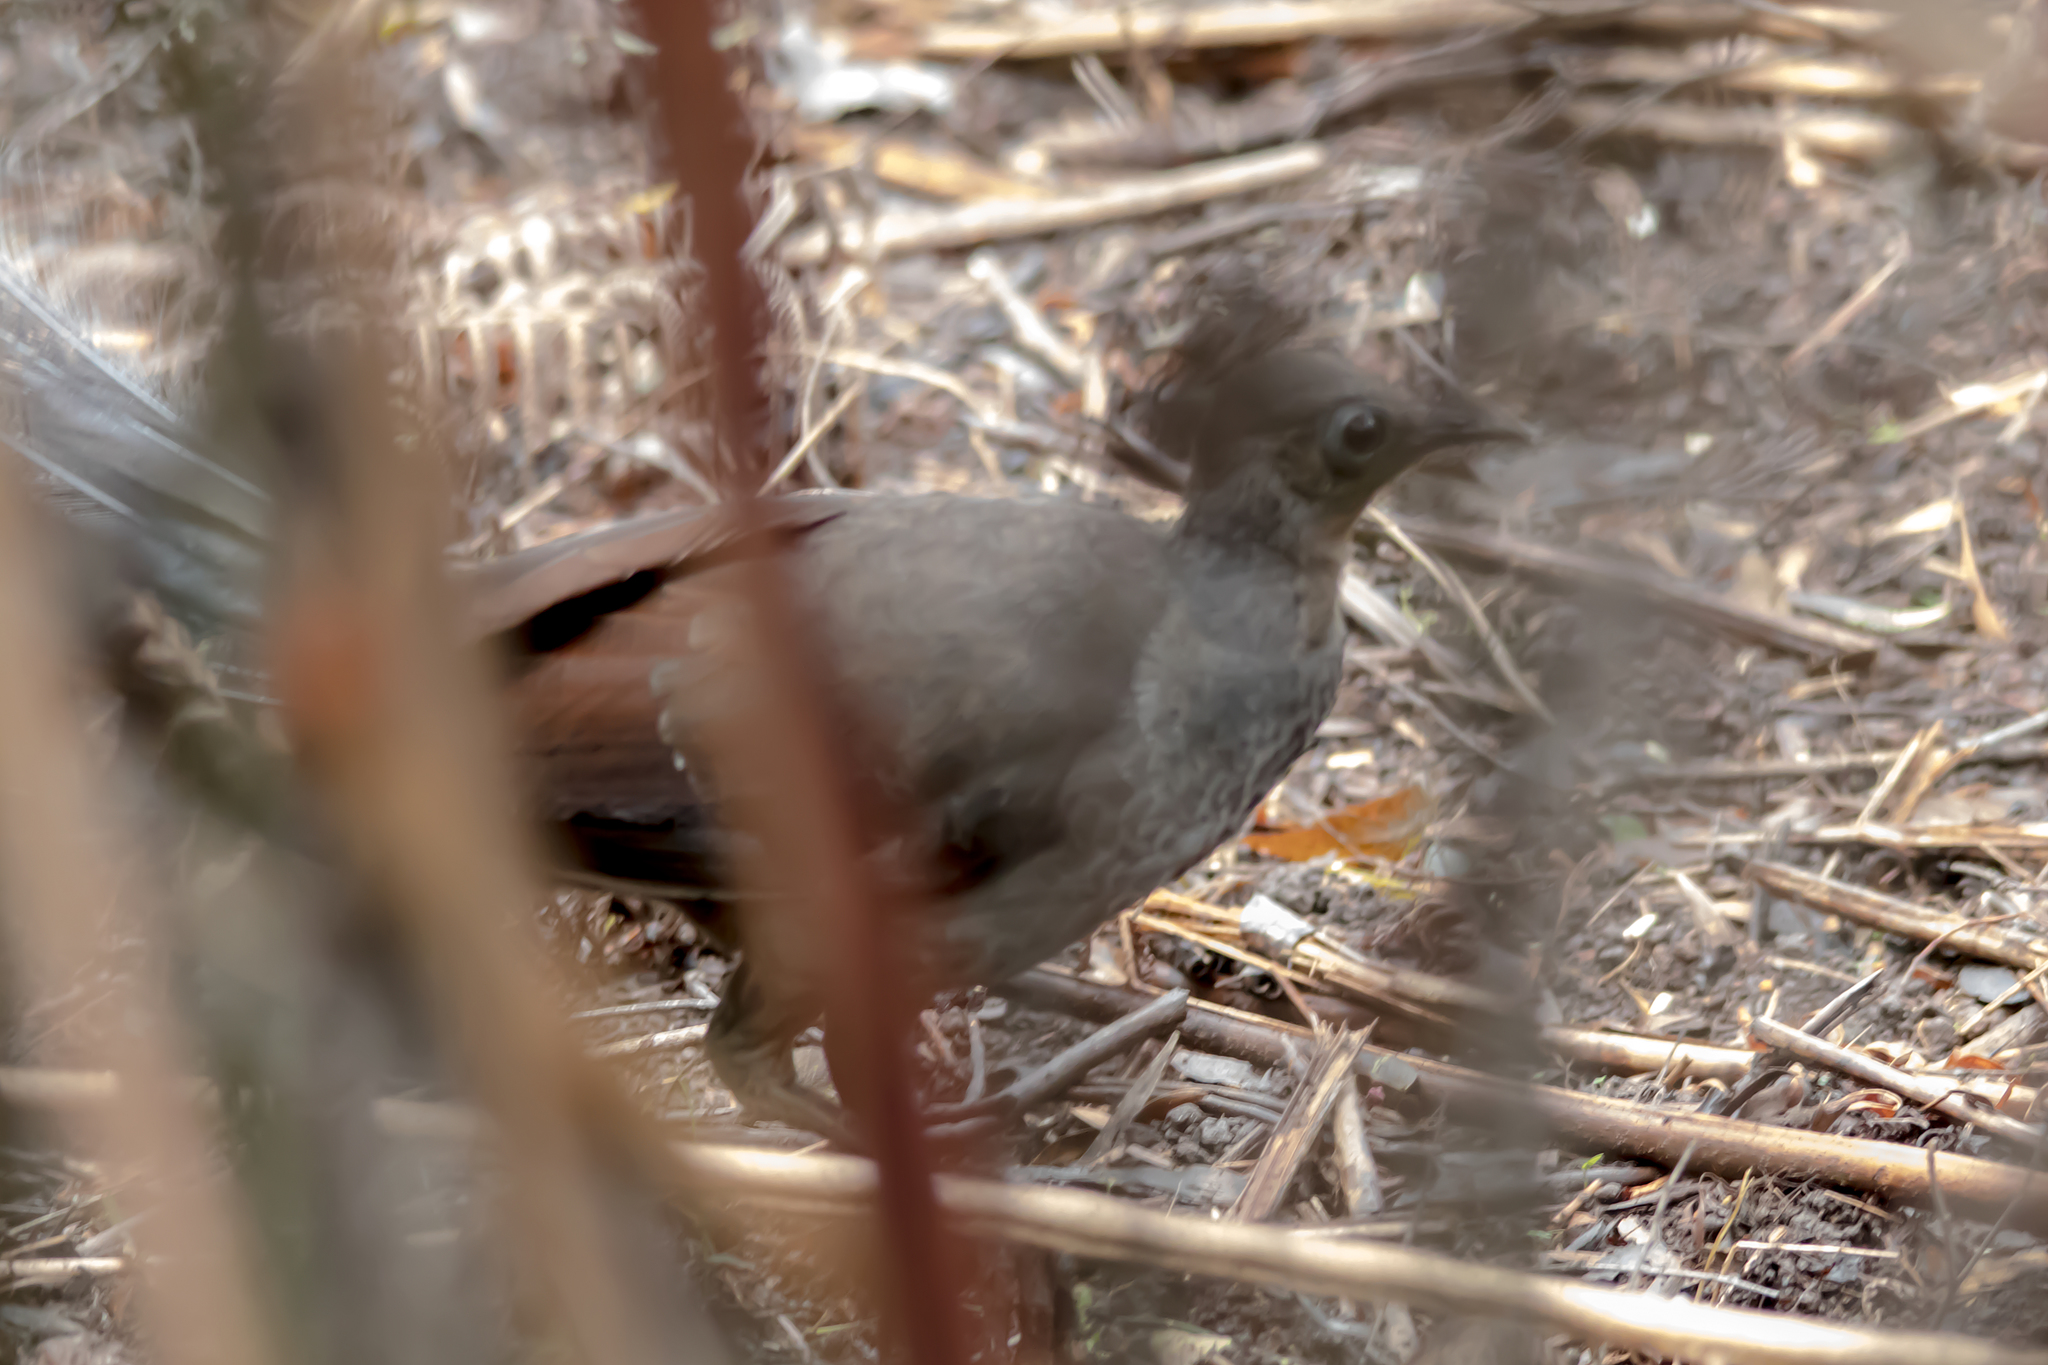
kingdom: Animalia
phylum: Chordata
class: Aves
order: Passeriformes
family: Menuridae
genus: Menura
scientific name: Menura novaehollandiae
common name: Superb lyrebird
